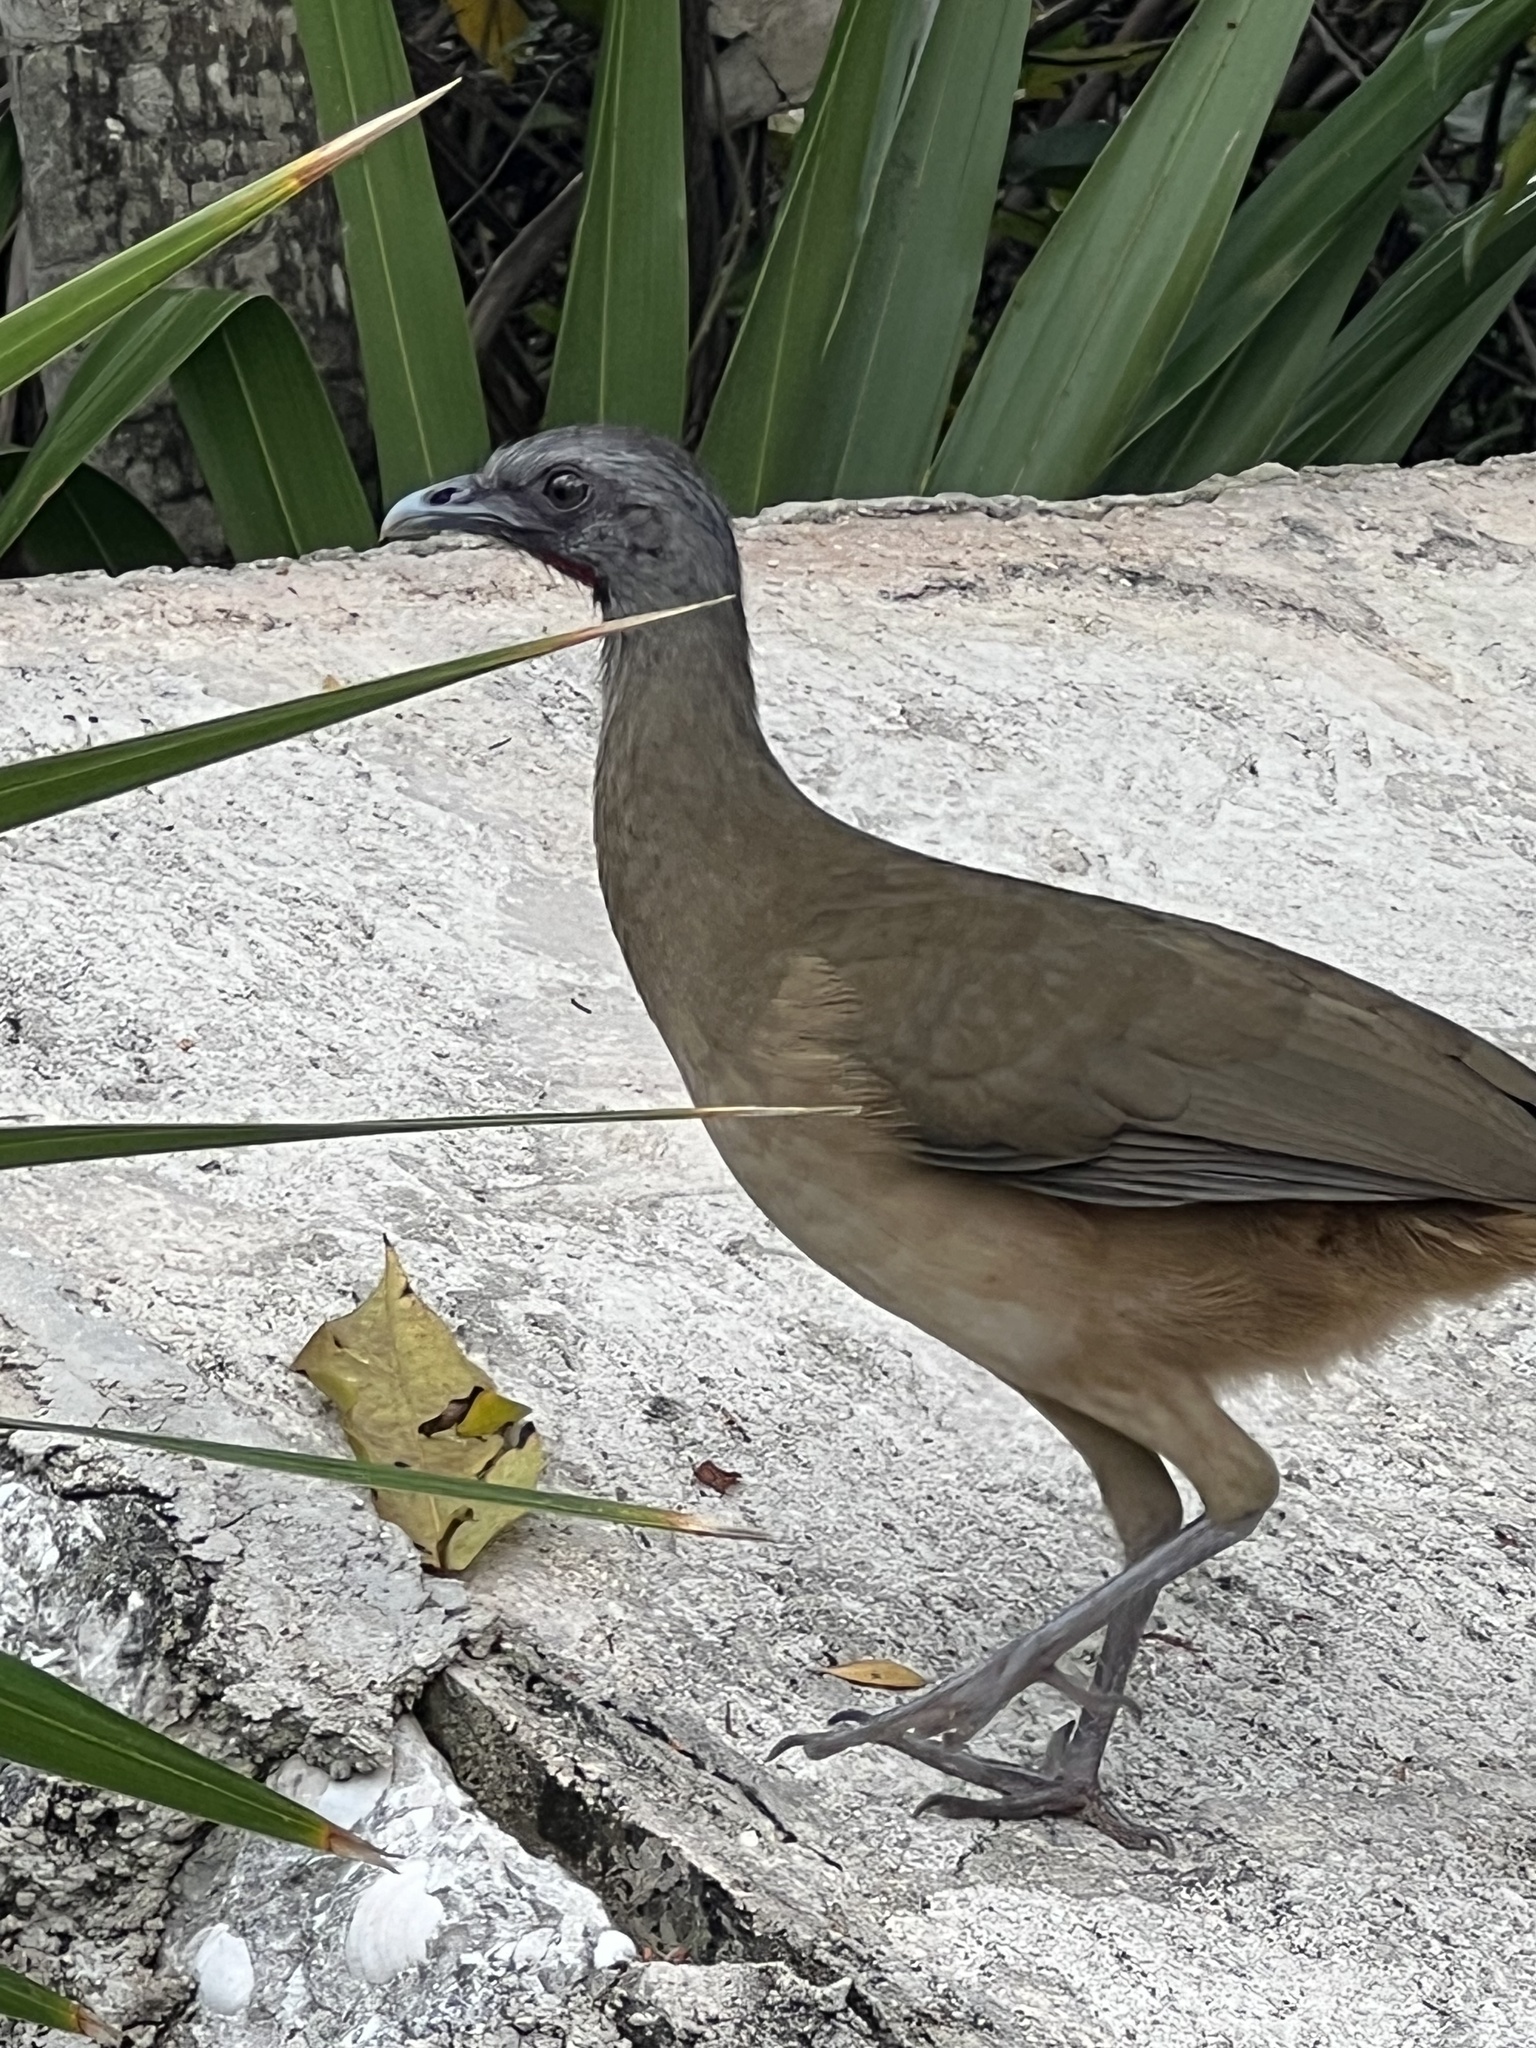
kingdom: Animalia
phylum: Chordata
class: Aves
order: Galliformes
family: Cracidae
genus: Ortalis
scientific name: Ortalis vetula
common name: Plain chachalaca
